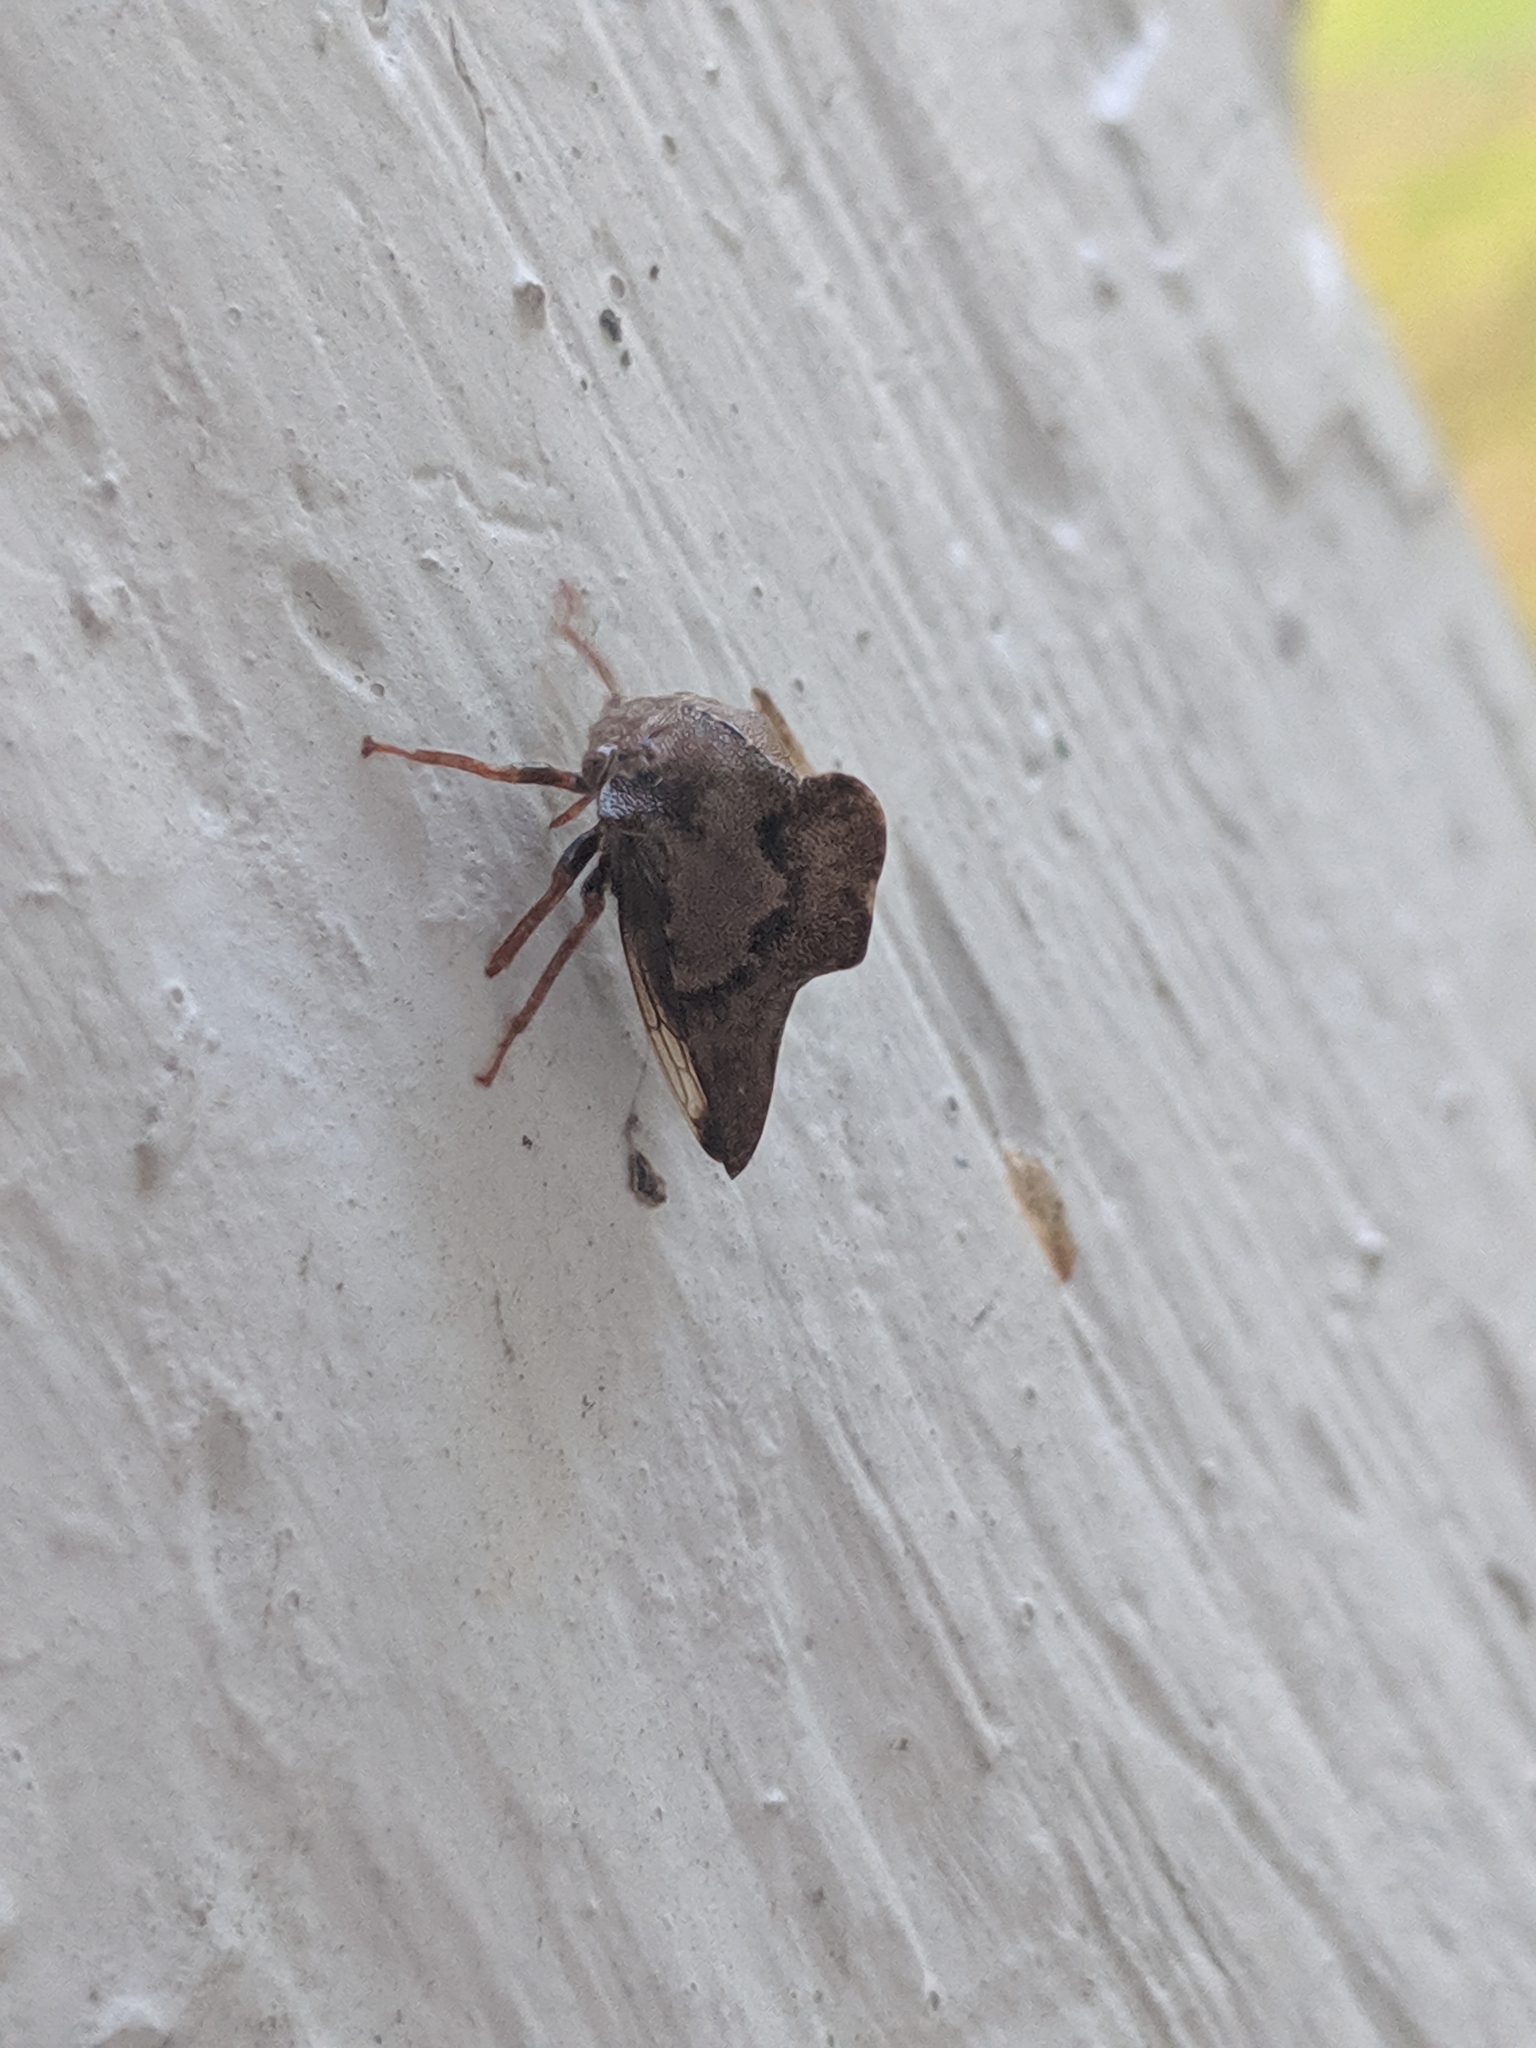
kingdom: Animalia
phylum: Arthropoda
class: Insecta
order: Hemiptera
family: Membracidae
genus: Telamona
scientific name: Telamona ampelopsidis
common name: Virginia creeper treehopper
